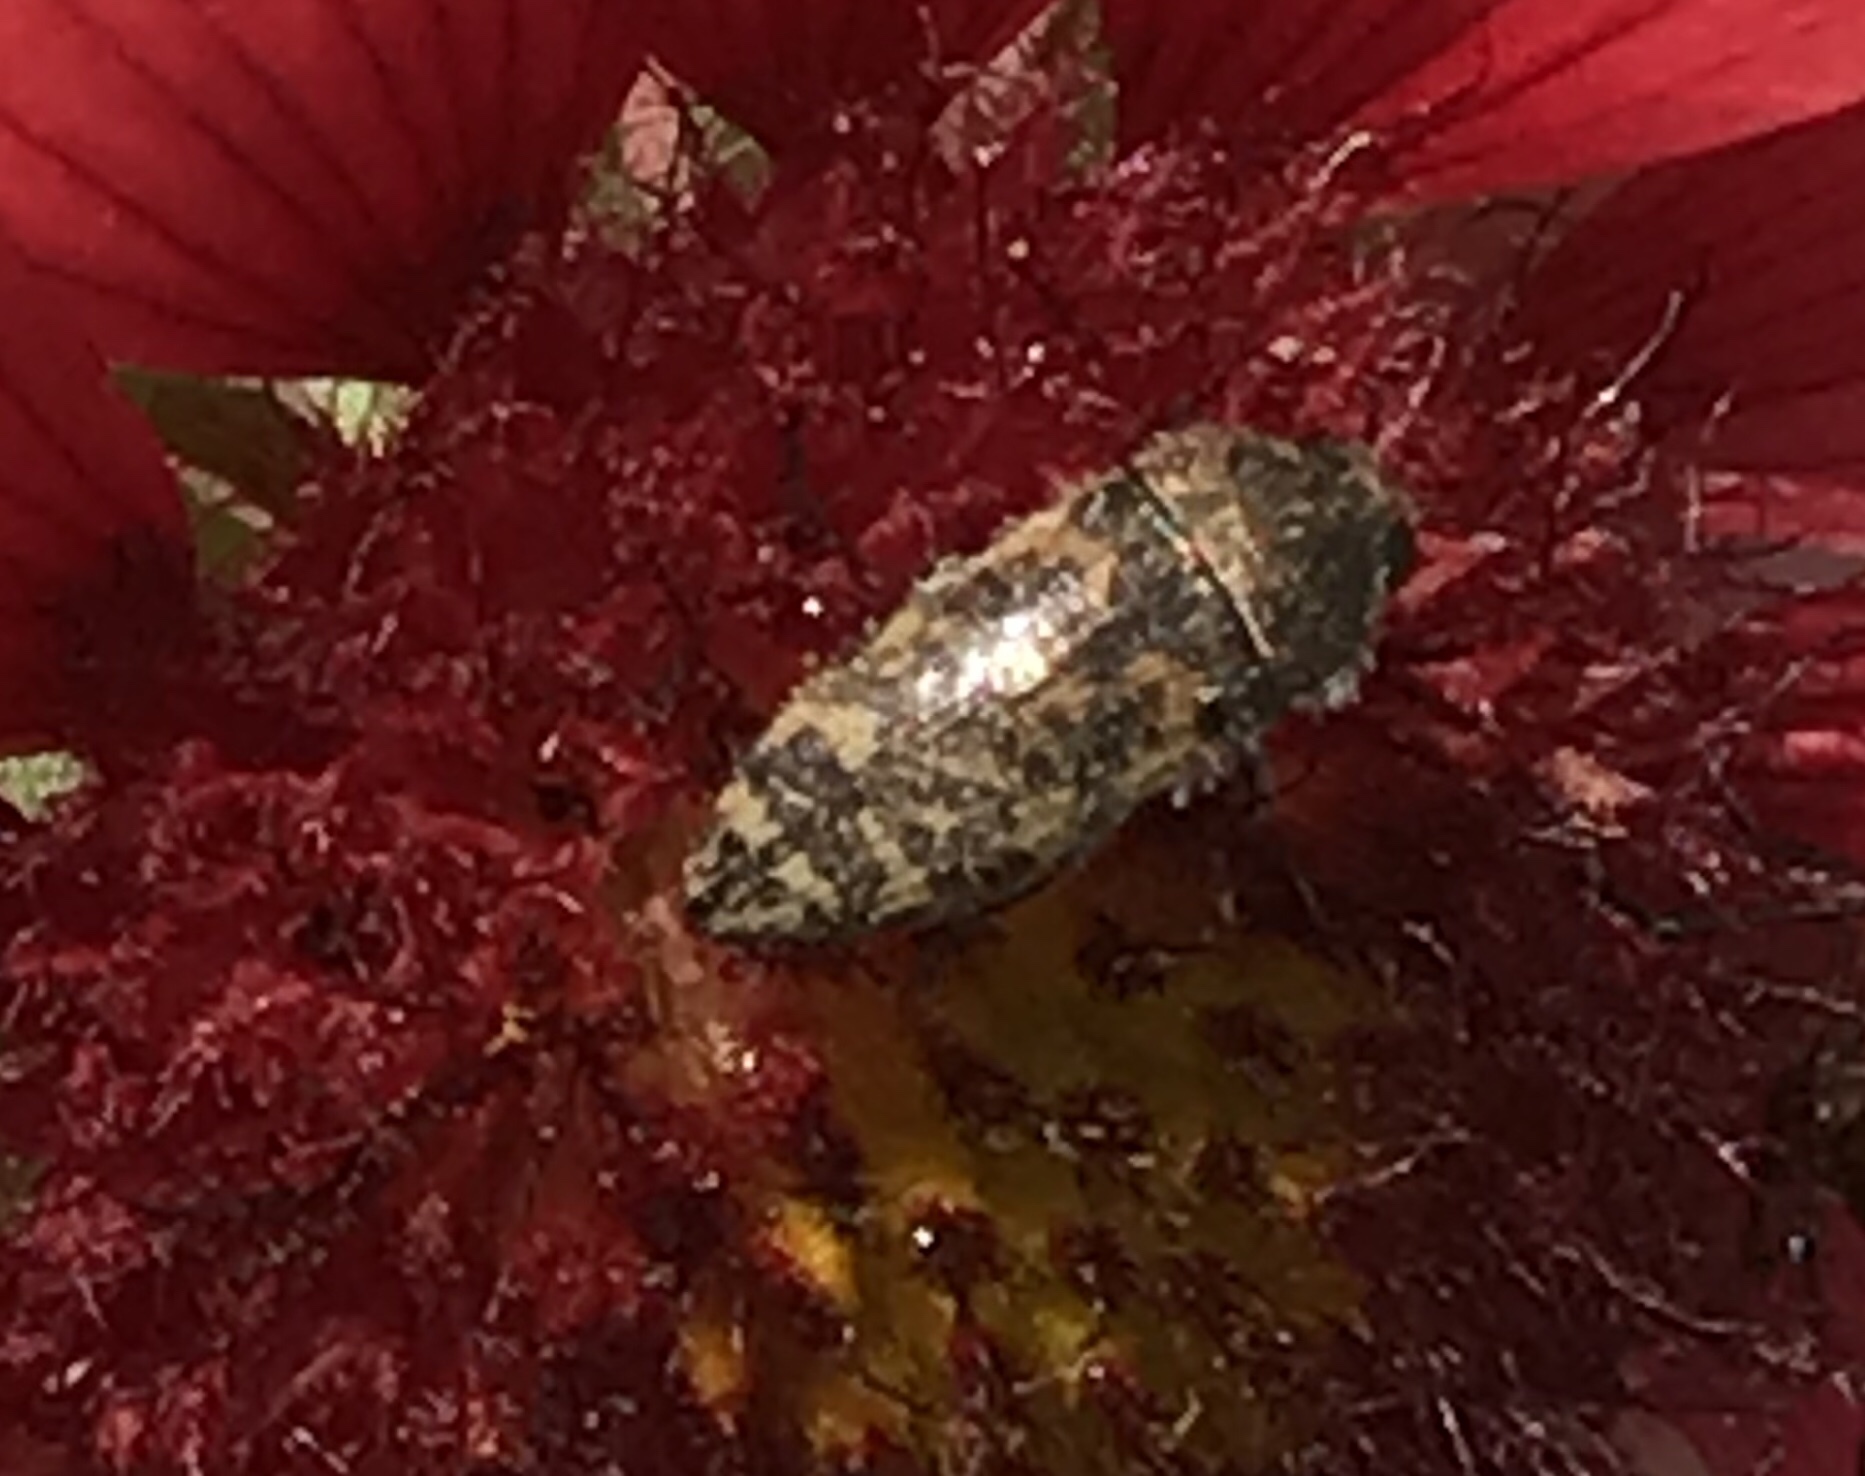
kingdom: Animalia
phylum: Arthropoda
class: Insecta
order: Coleoptera
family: Buprestidae
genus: Acmaeodera
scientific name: Acmaeodera mixta
